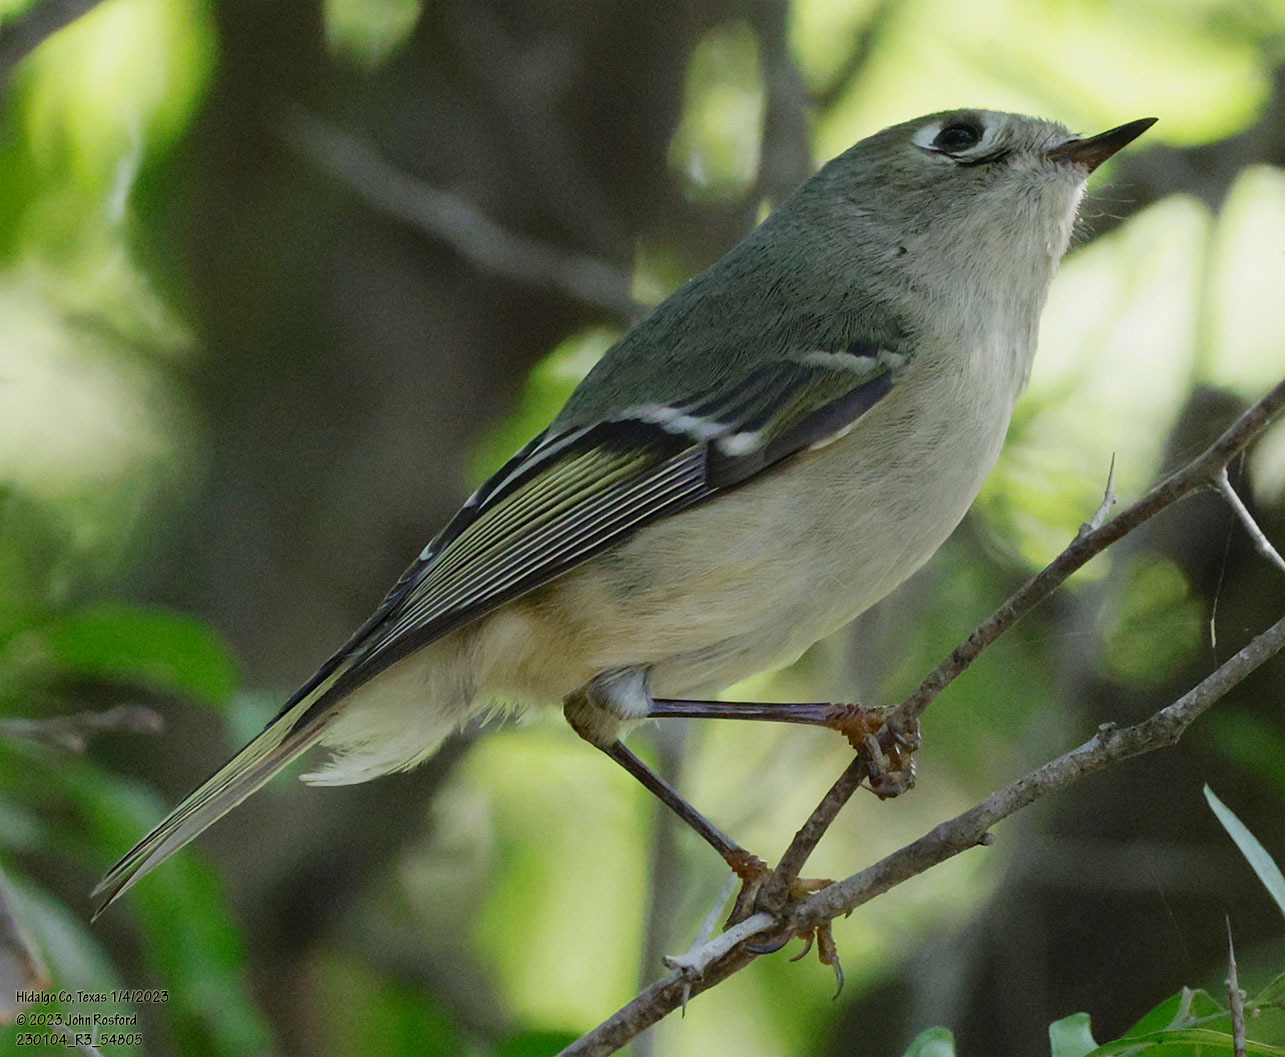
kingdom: Animalia
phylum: Chordata
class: Aves
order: Passeriformes
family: Regulidae
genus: Regulus
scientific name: Regulus calendula
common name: Ruby-crowned kinglet
